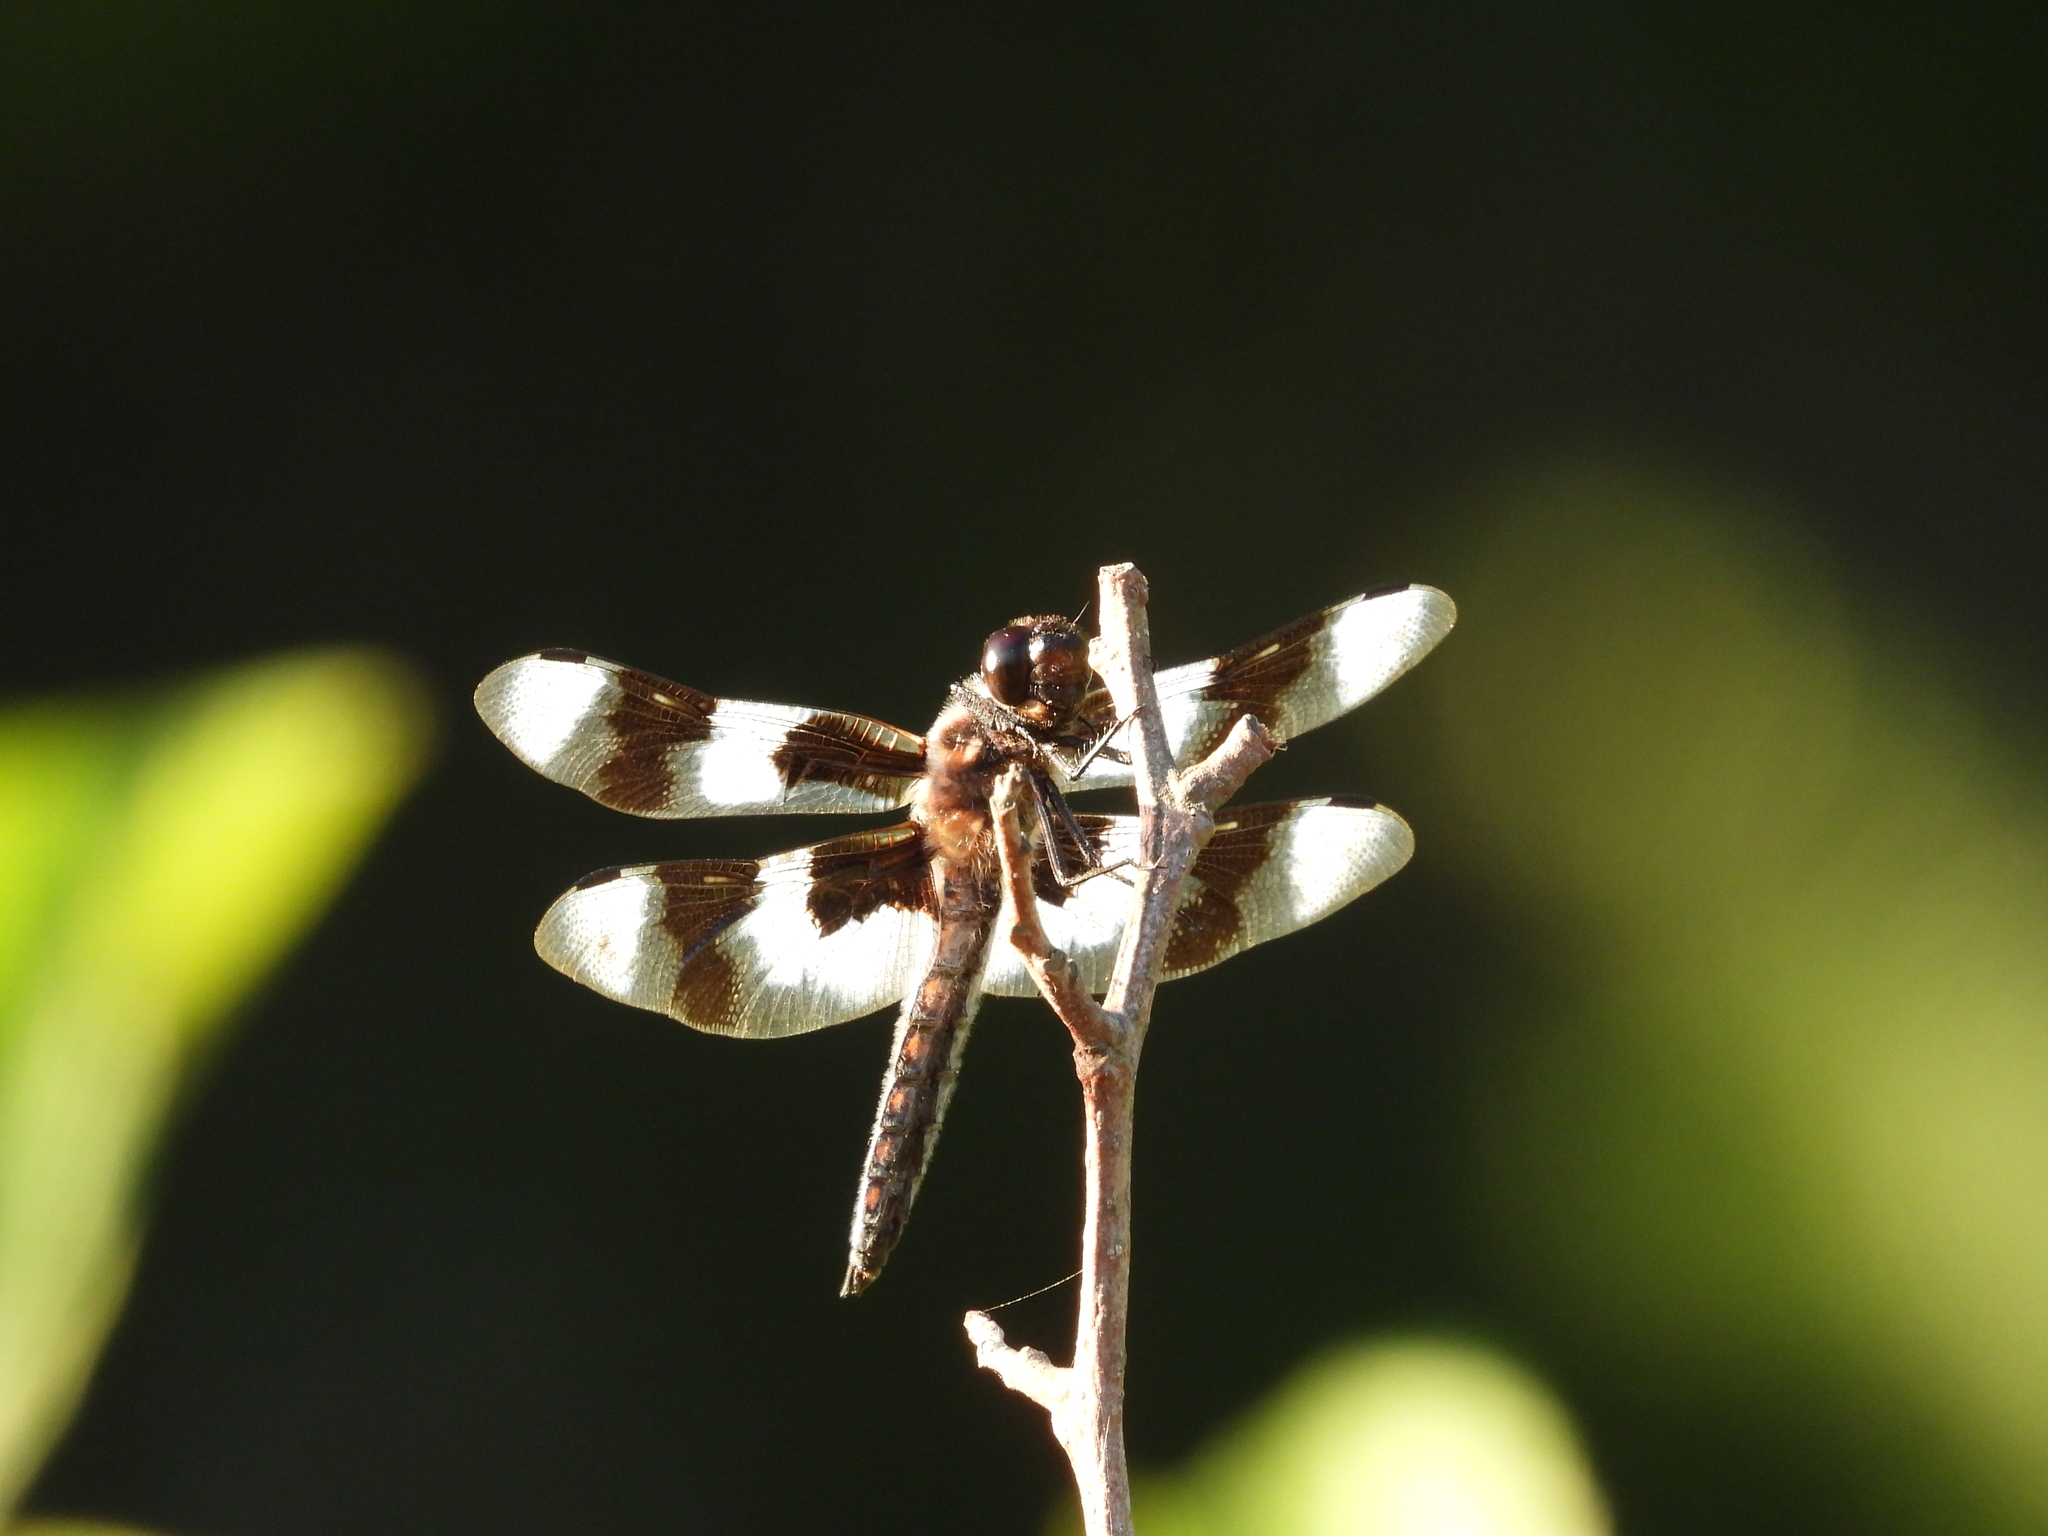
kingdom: Animalia
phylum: Arthropoda
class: Insecta
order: Odonata
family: Libellulidae
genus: Libellula
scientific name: Libellula forensis
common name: Eight-spotted skimmer
